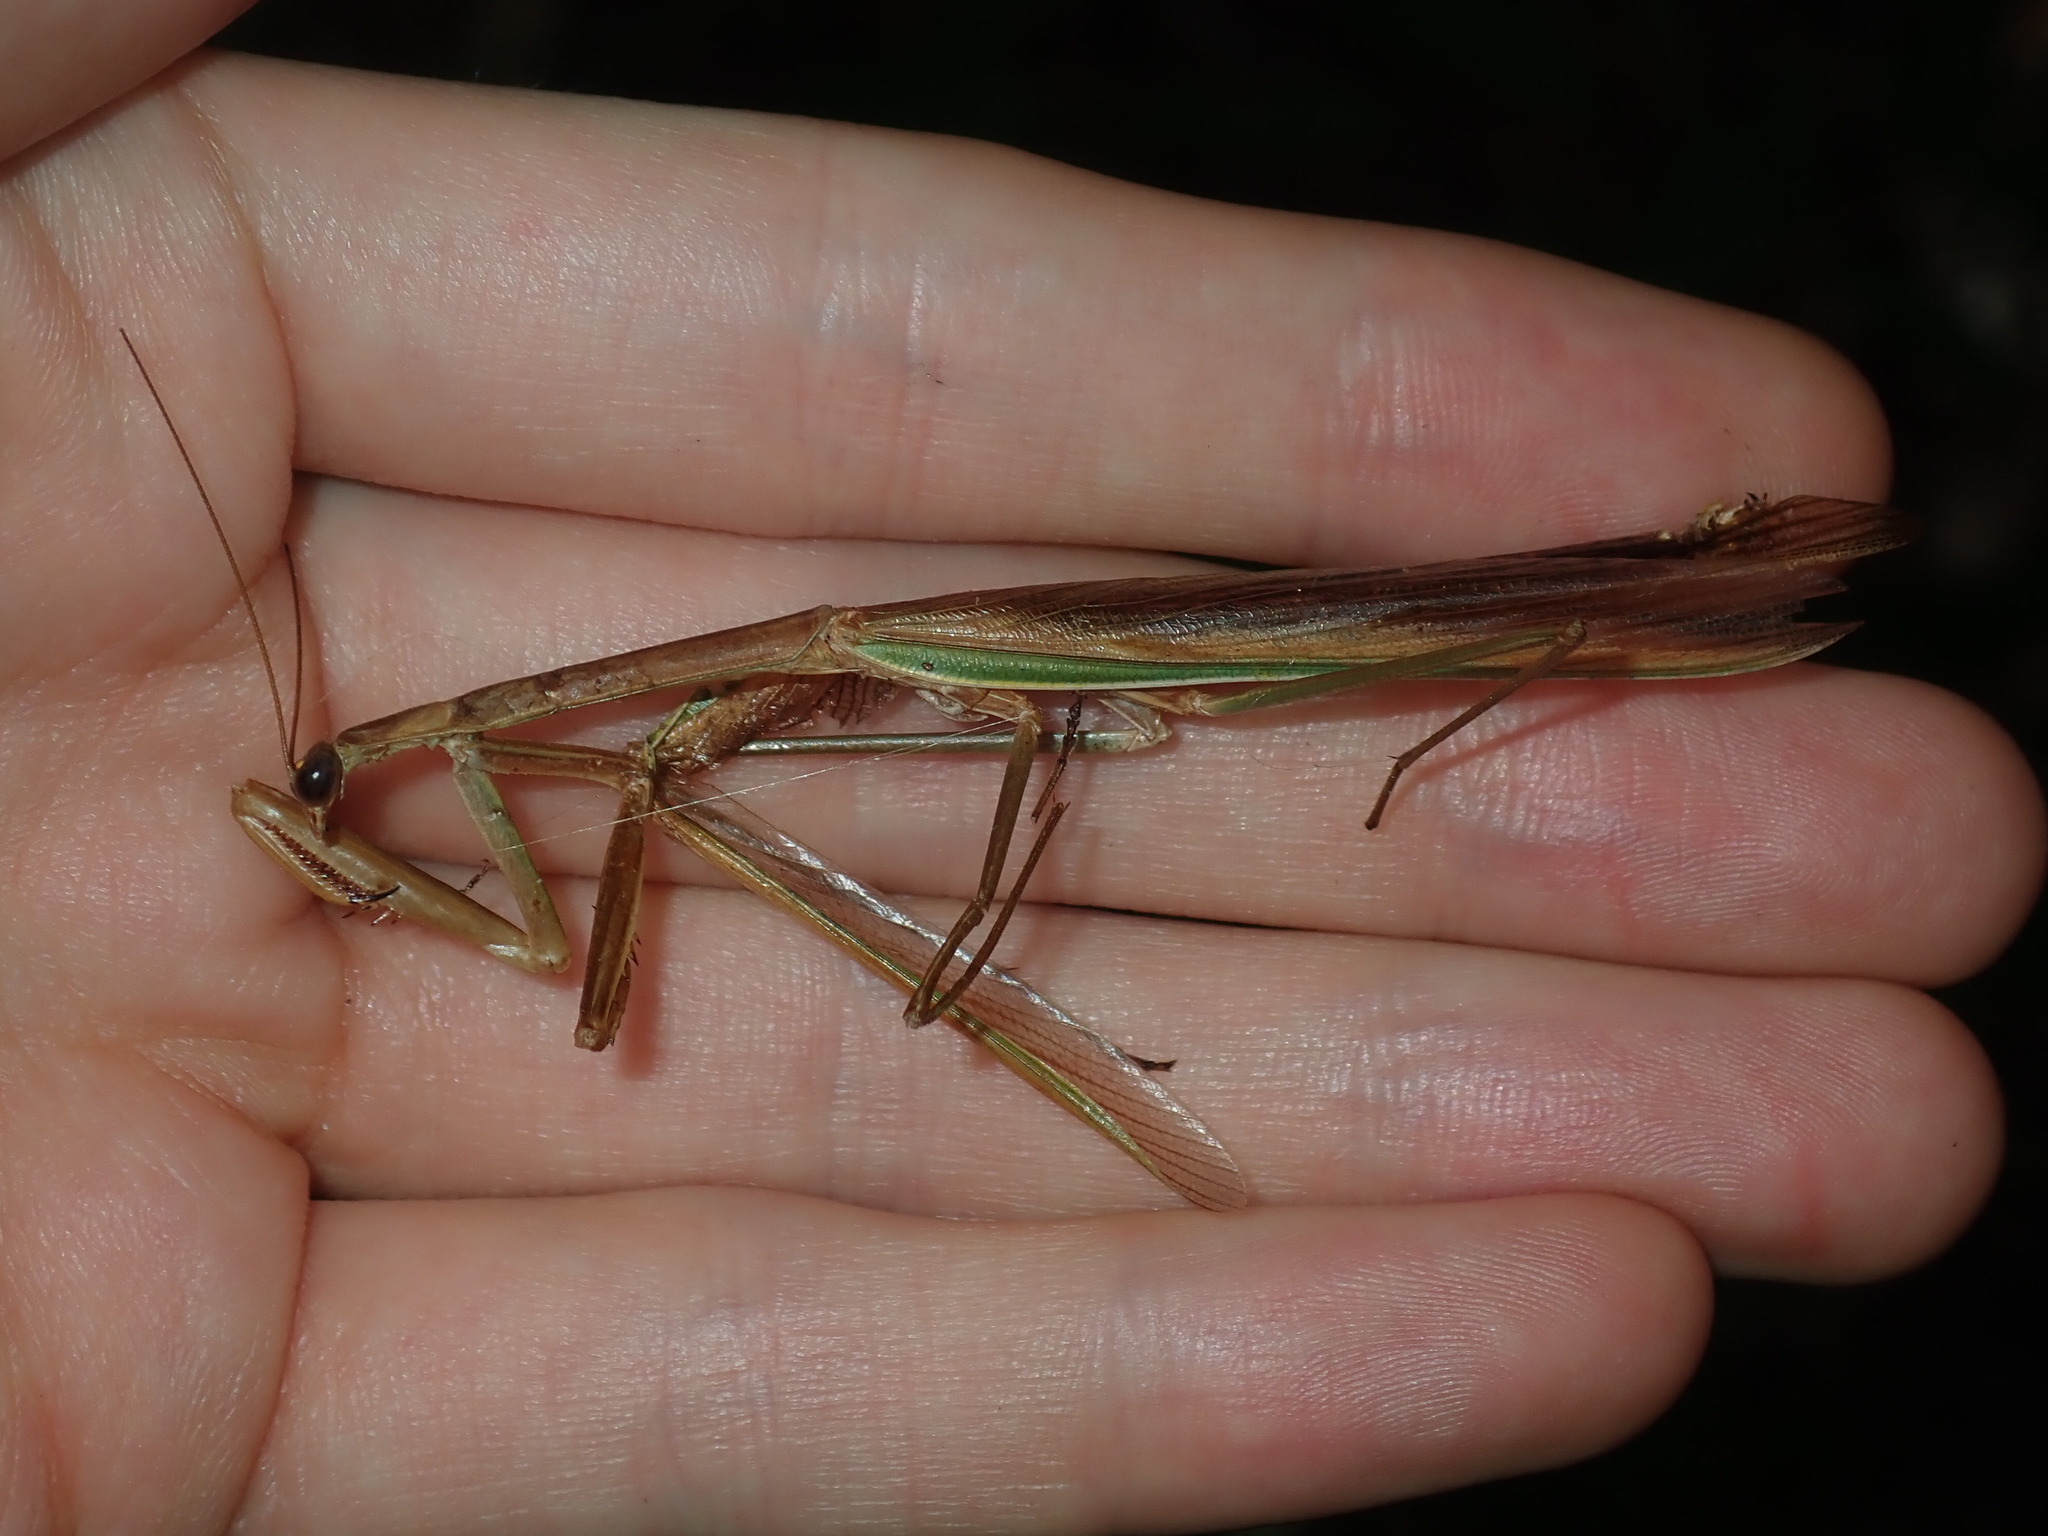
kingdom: Animalia
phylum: Arthropoda
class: Insecta
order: Mantodea
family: Mantidae
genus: Tenodera
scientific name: Tenodera australasiae
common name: Purple-winged mantis
